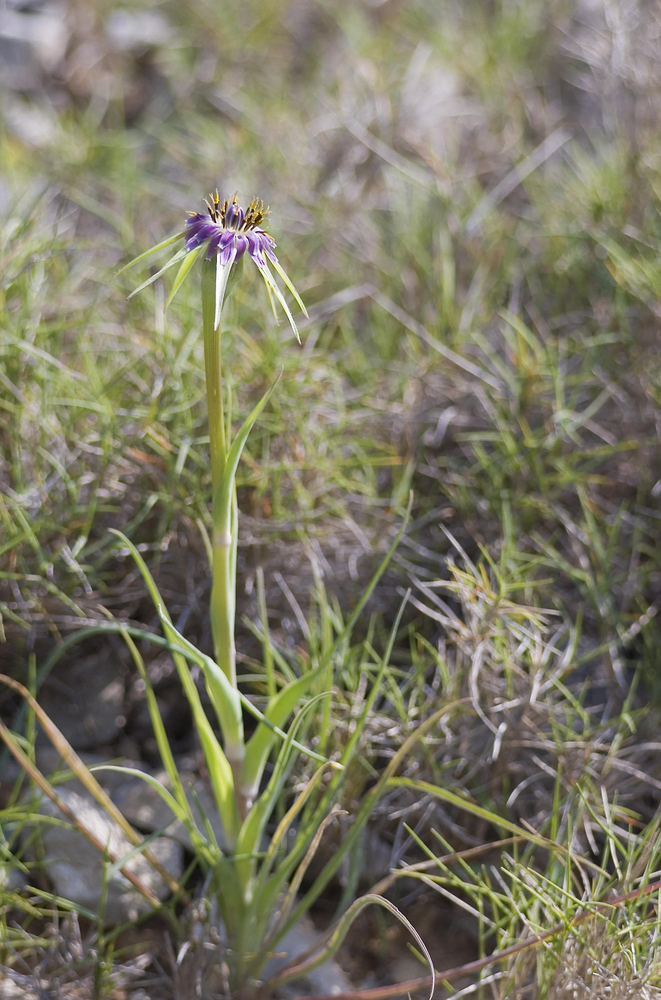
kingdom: Plantae
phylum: Tracheophyta
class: Magnoliopsida
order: Asterales
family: Asteraceae
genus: Tragopogon
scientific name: Tragopogon porrifolius
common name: Salsify
